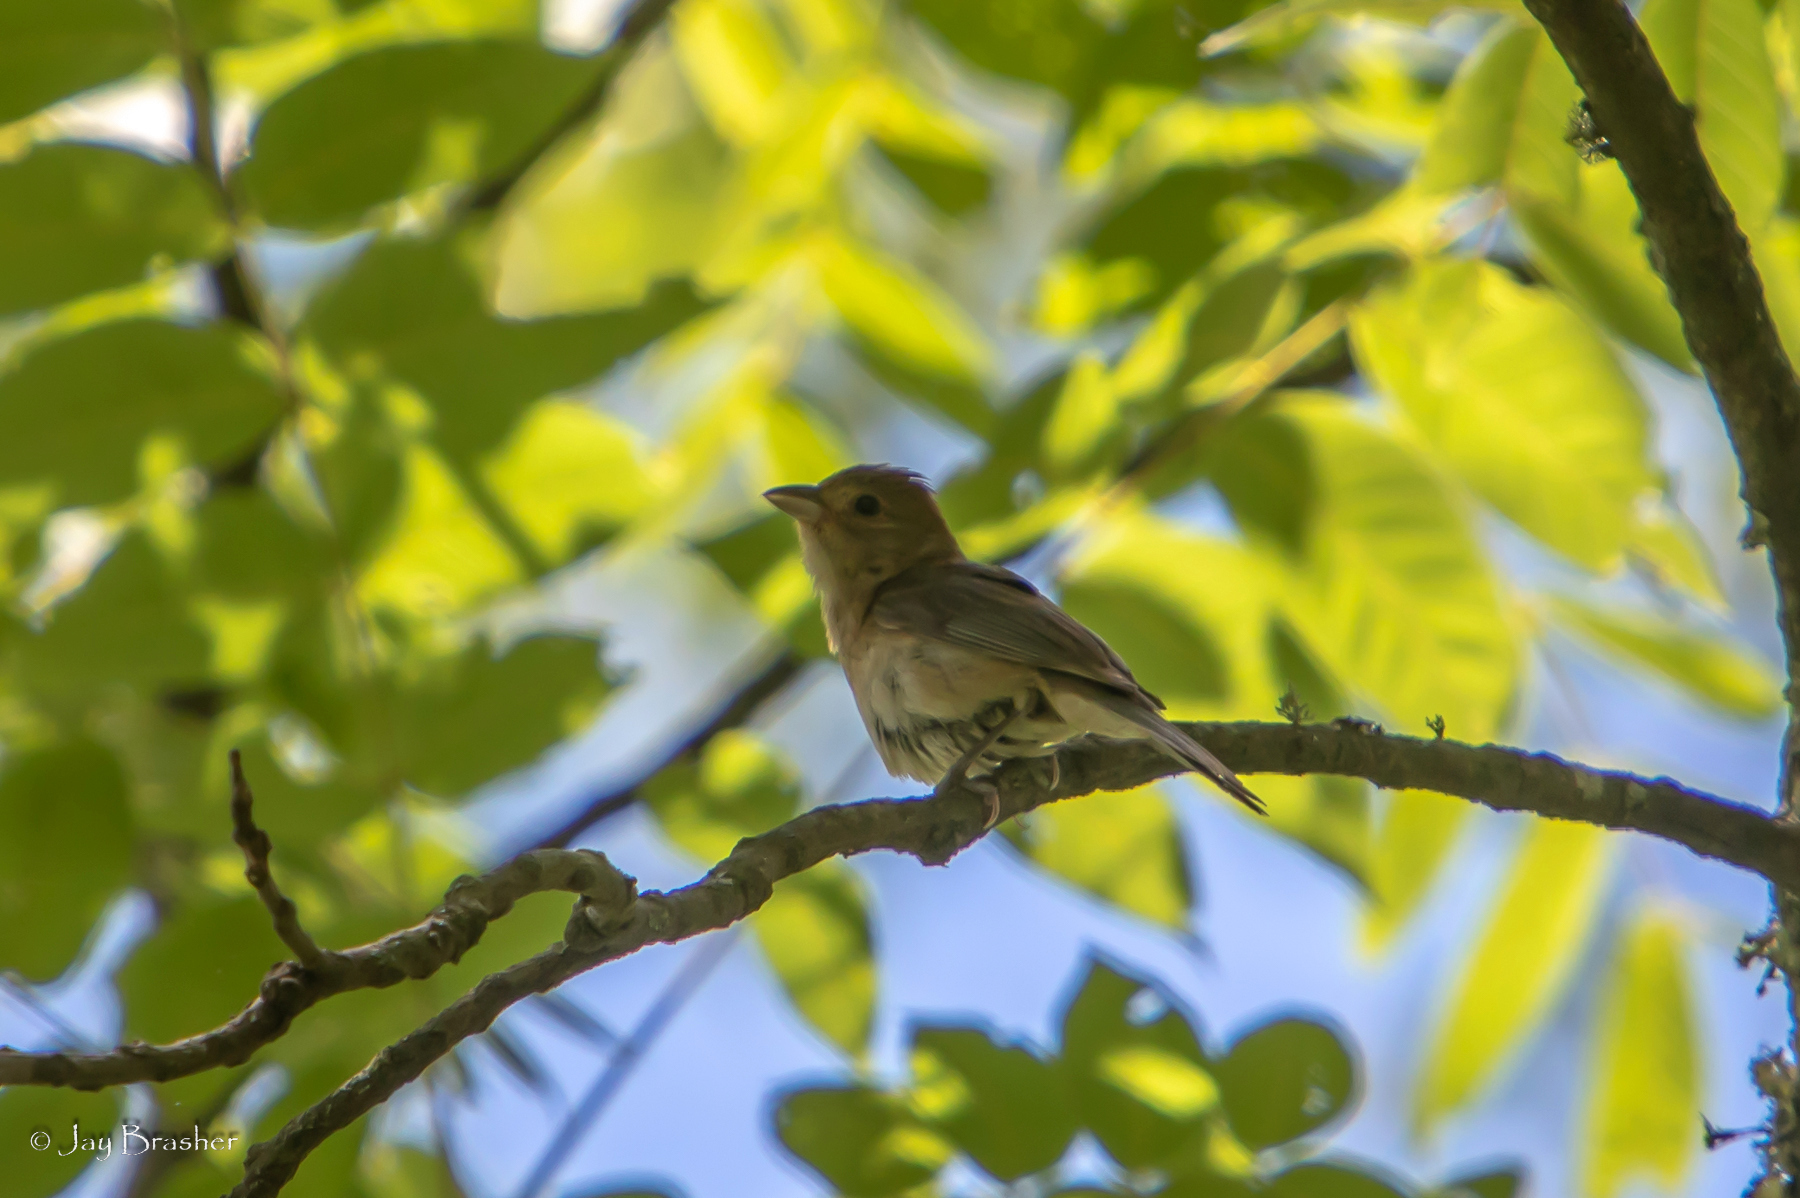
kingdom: Animalia
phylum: Chordata
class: Aves
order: Passeriformes
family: Cardinalidae
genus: Passerina
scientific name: Passerina cyanea
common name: Indigo bunting
